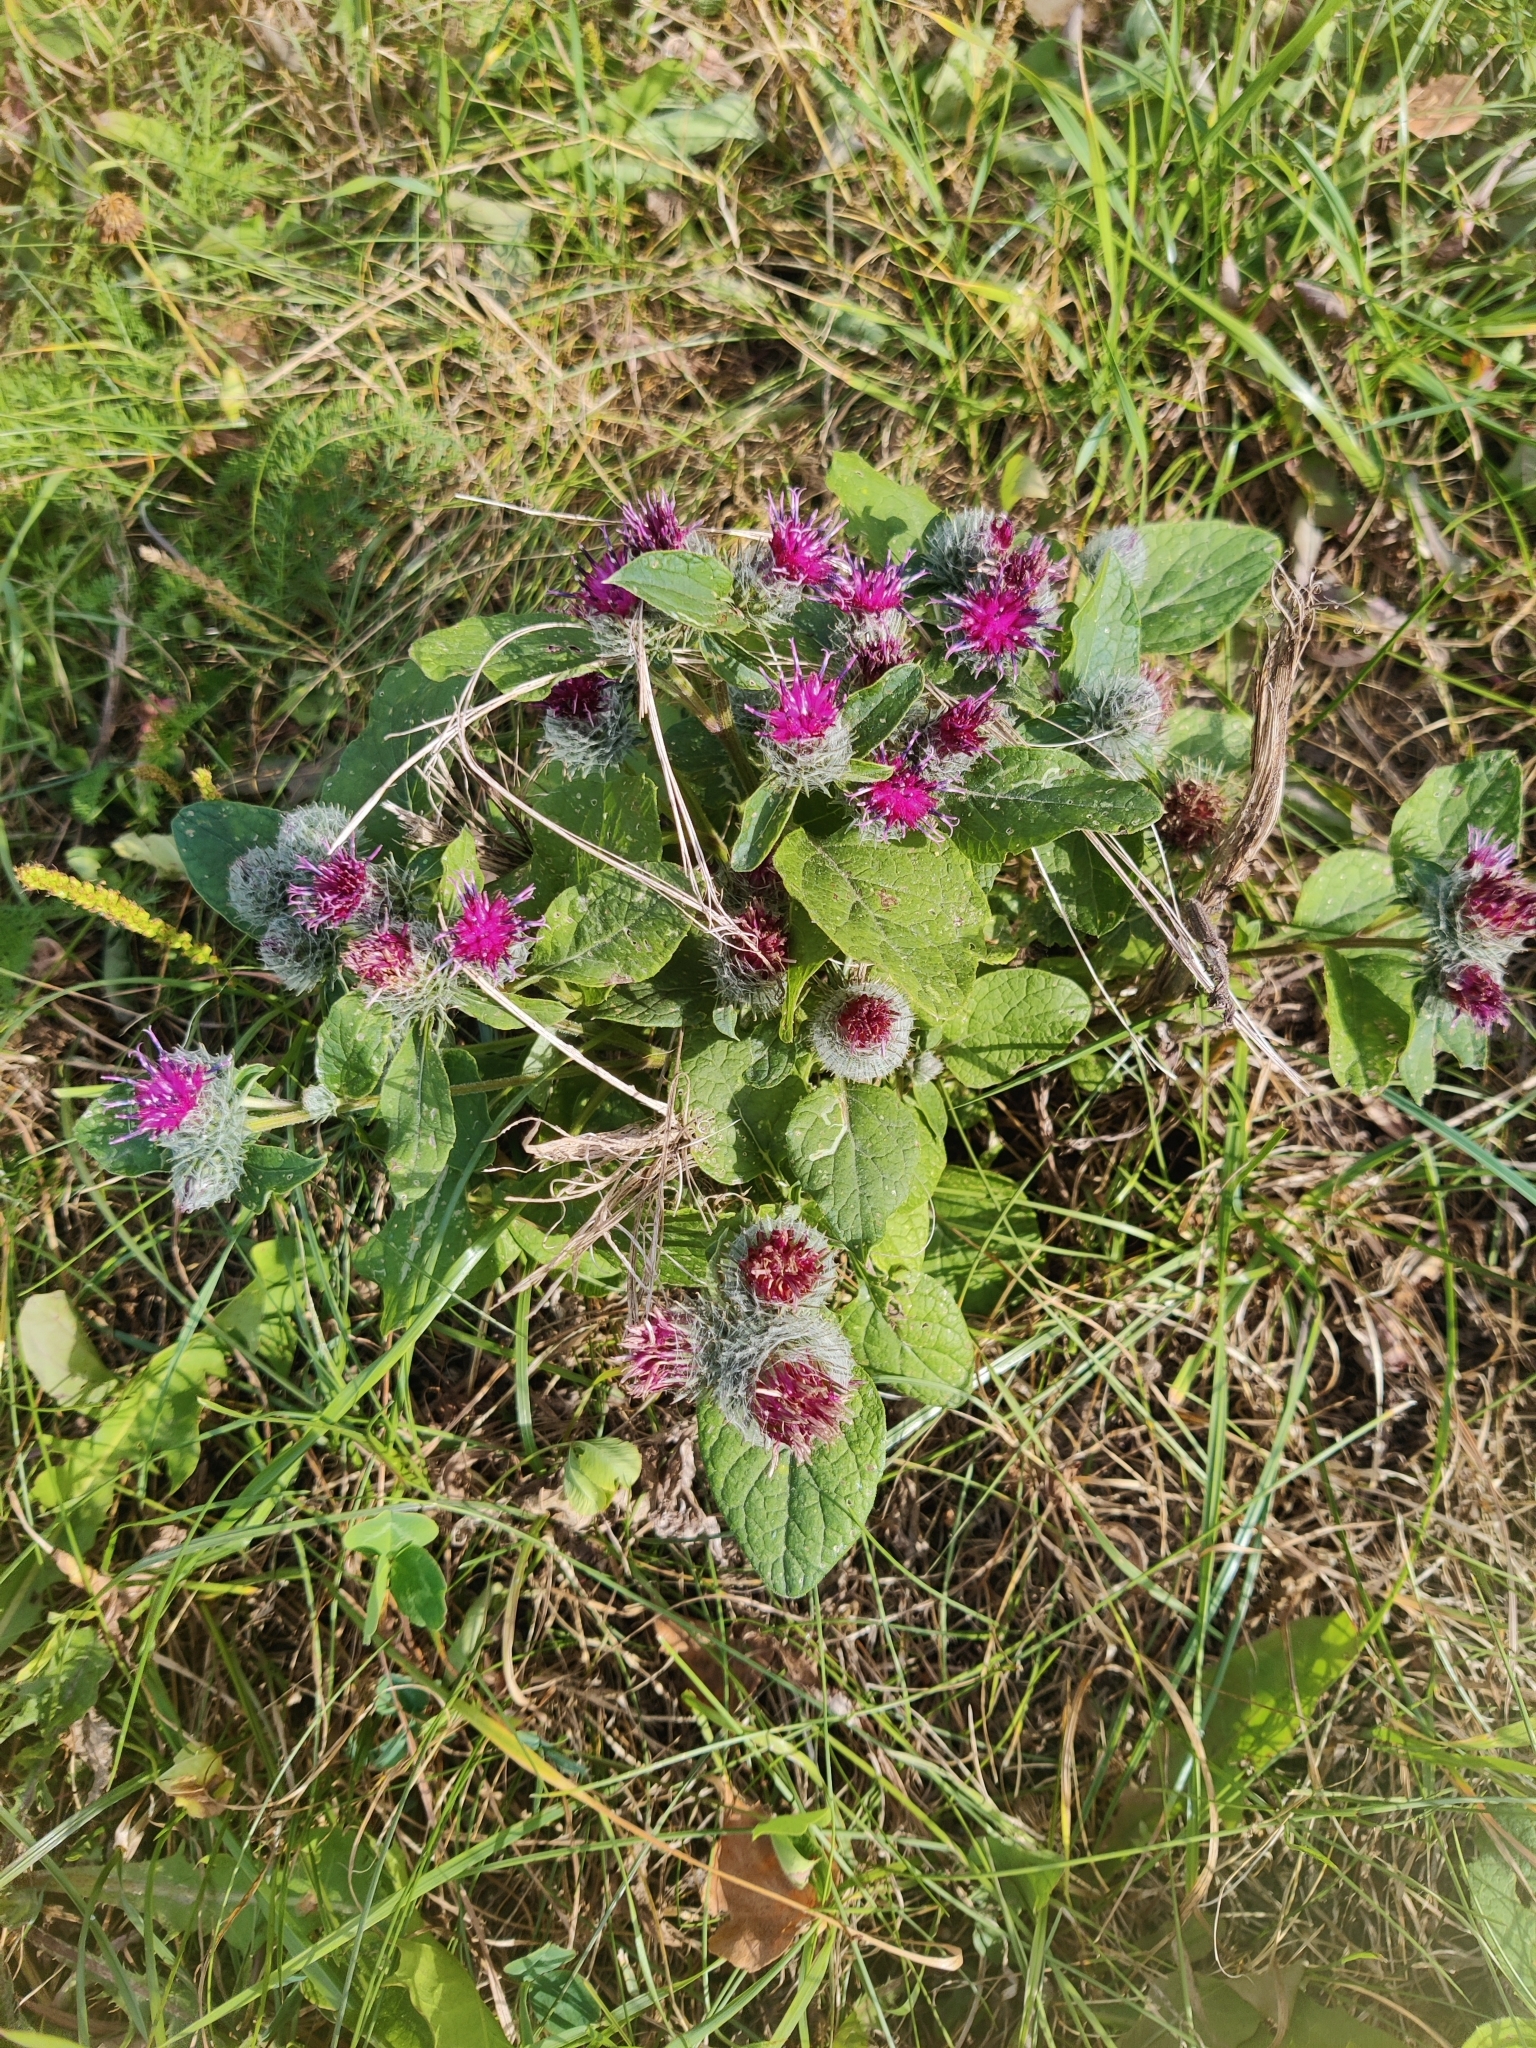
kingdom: Plantae
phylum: Tracheophyta
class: Magnoliopsida
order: Asterales
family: Asteraceae
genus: Arctium
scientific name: Arctium tomentosum
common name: Woolly burdock
